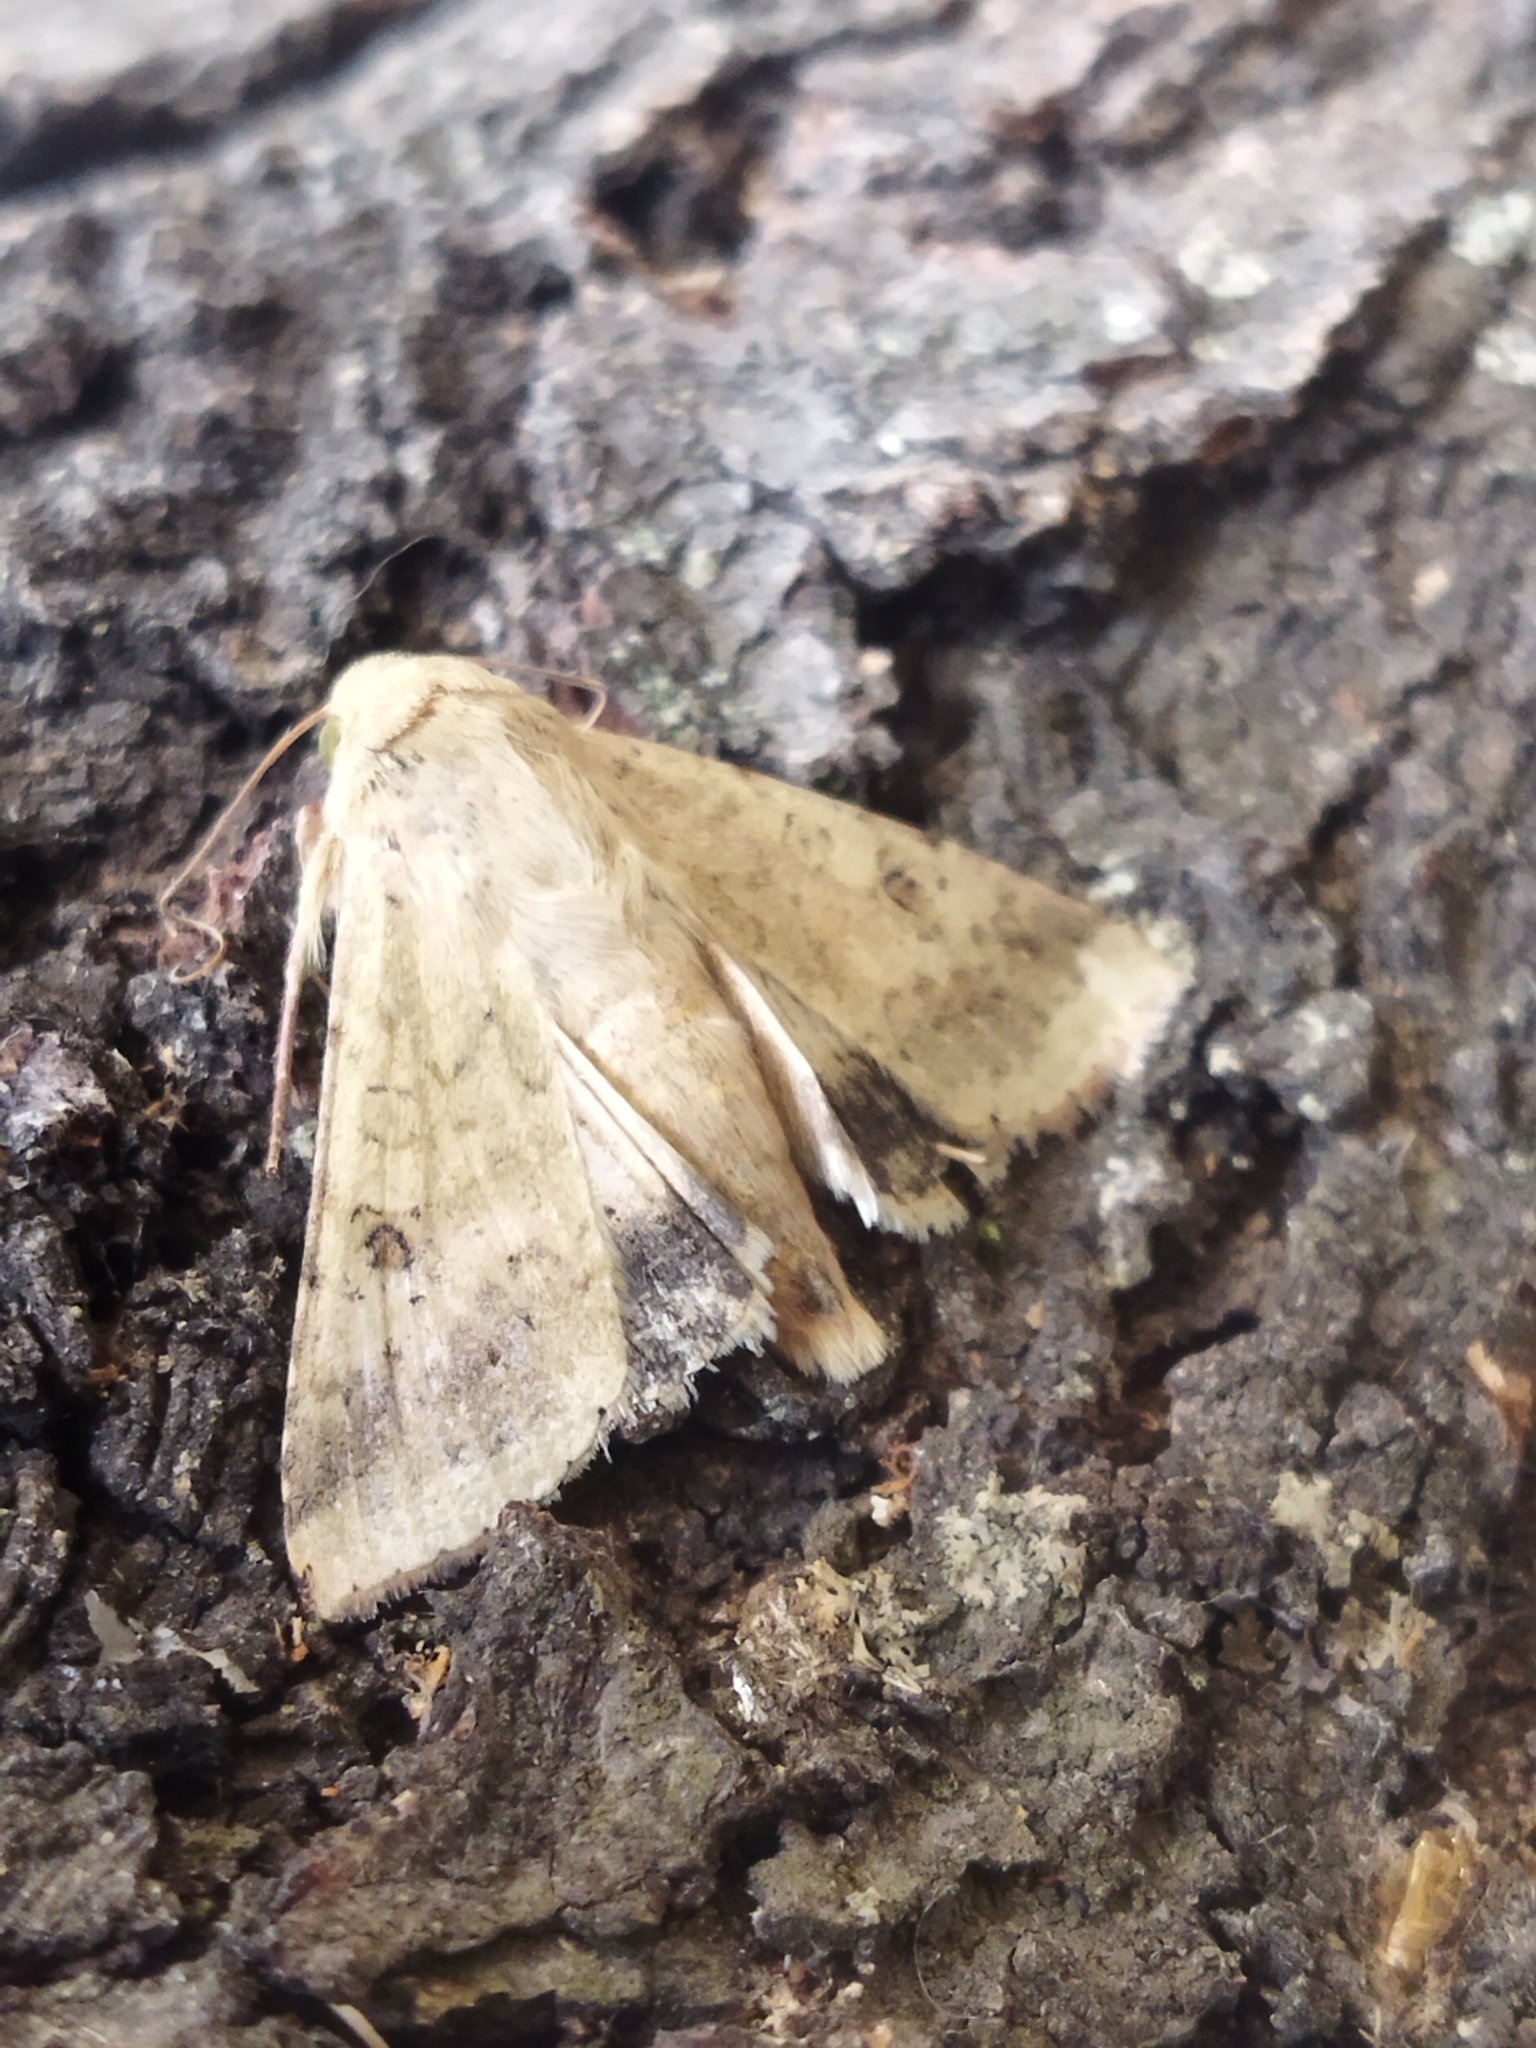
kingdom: Animalia
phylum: Arthropoda
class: Insecta
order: Lepidoptera
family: Noctuidae
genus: Helicoverpa
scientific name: Helicoverpa armigera
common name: Cotton bollworm
